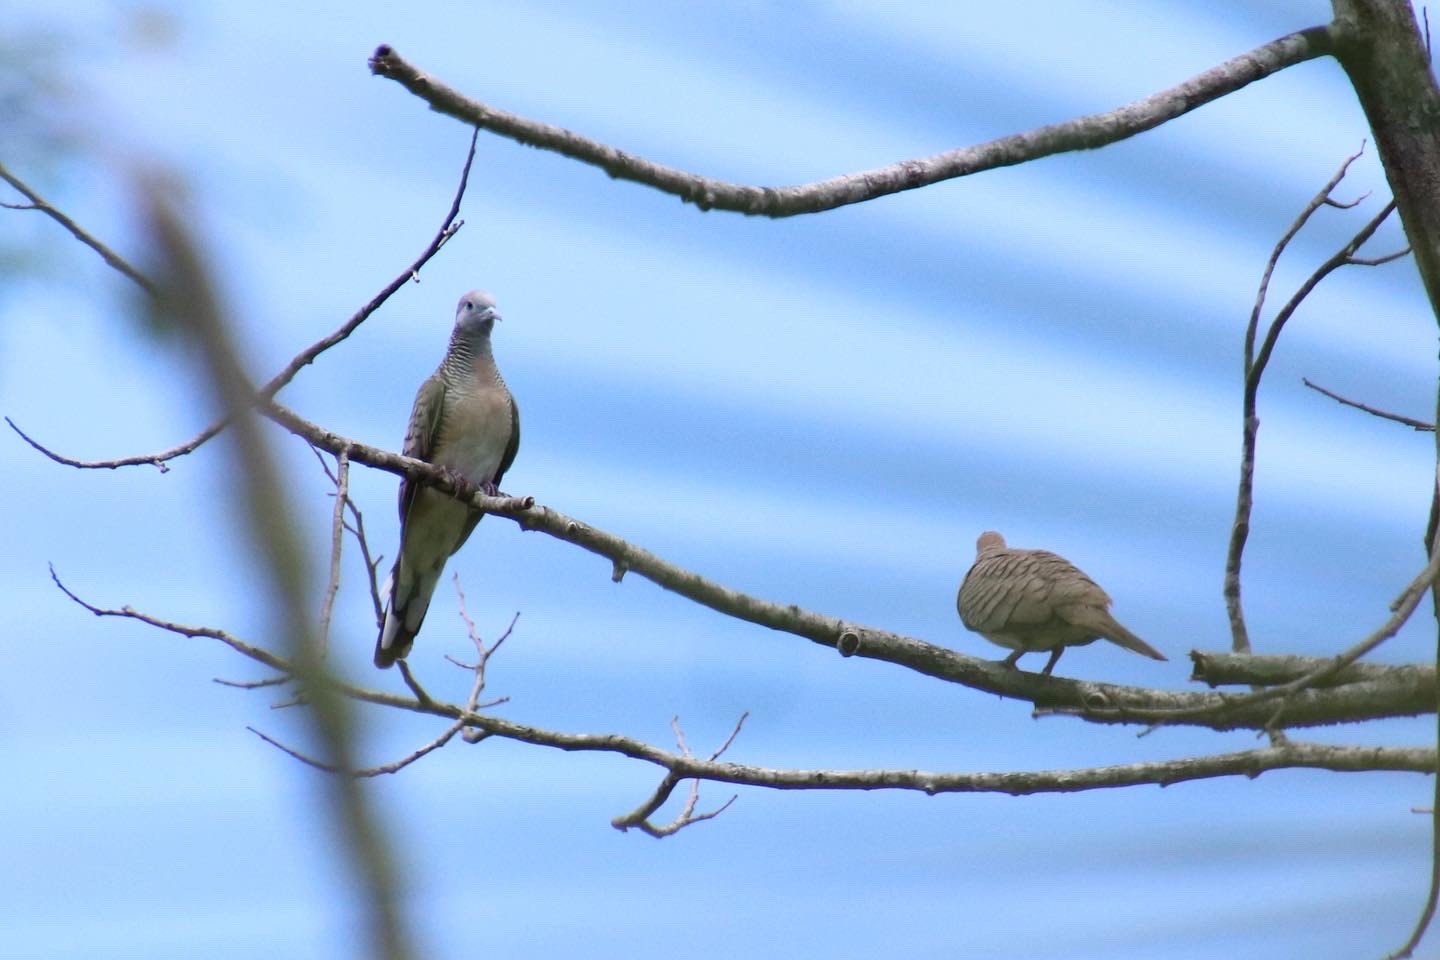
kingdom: Animalia
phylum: Chordata
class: Aves
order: Columbiformes
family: Columbidae
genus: Geopelia
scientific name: Geopelia striata
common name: Zebra dove
